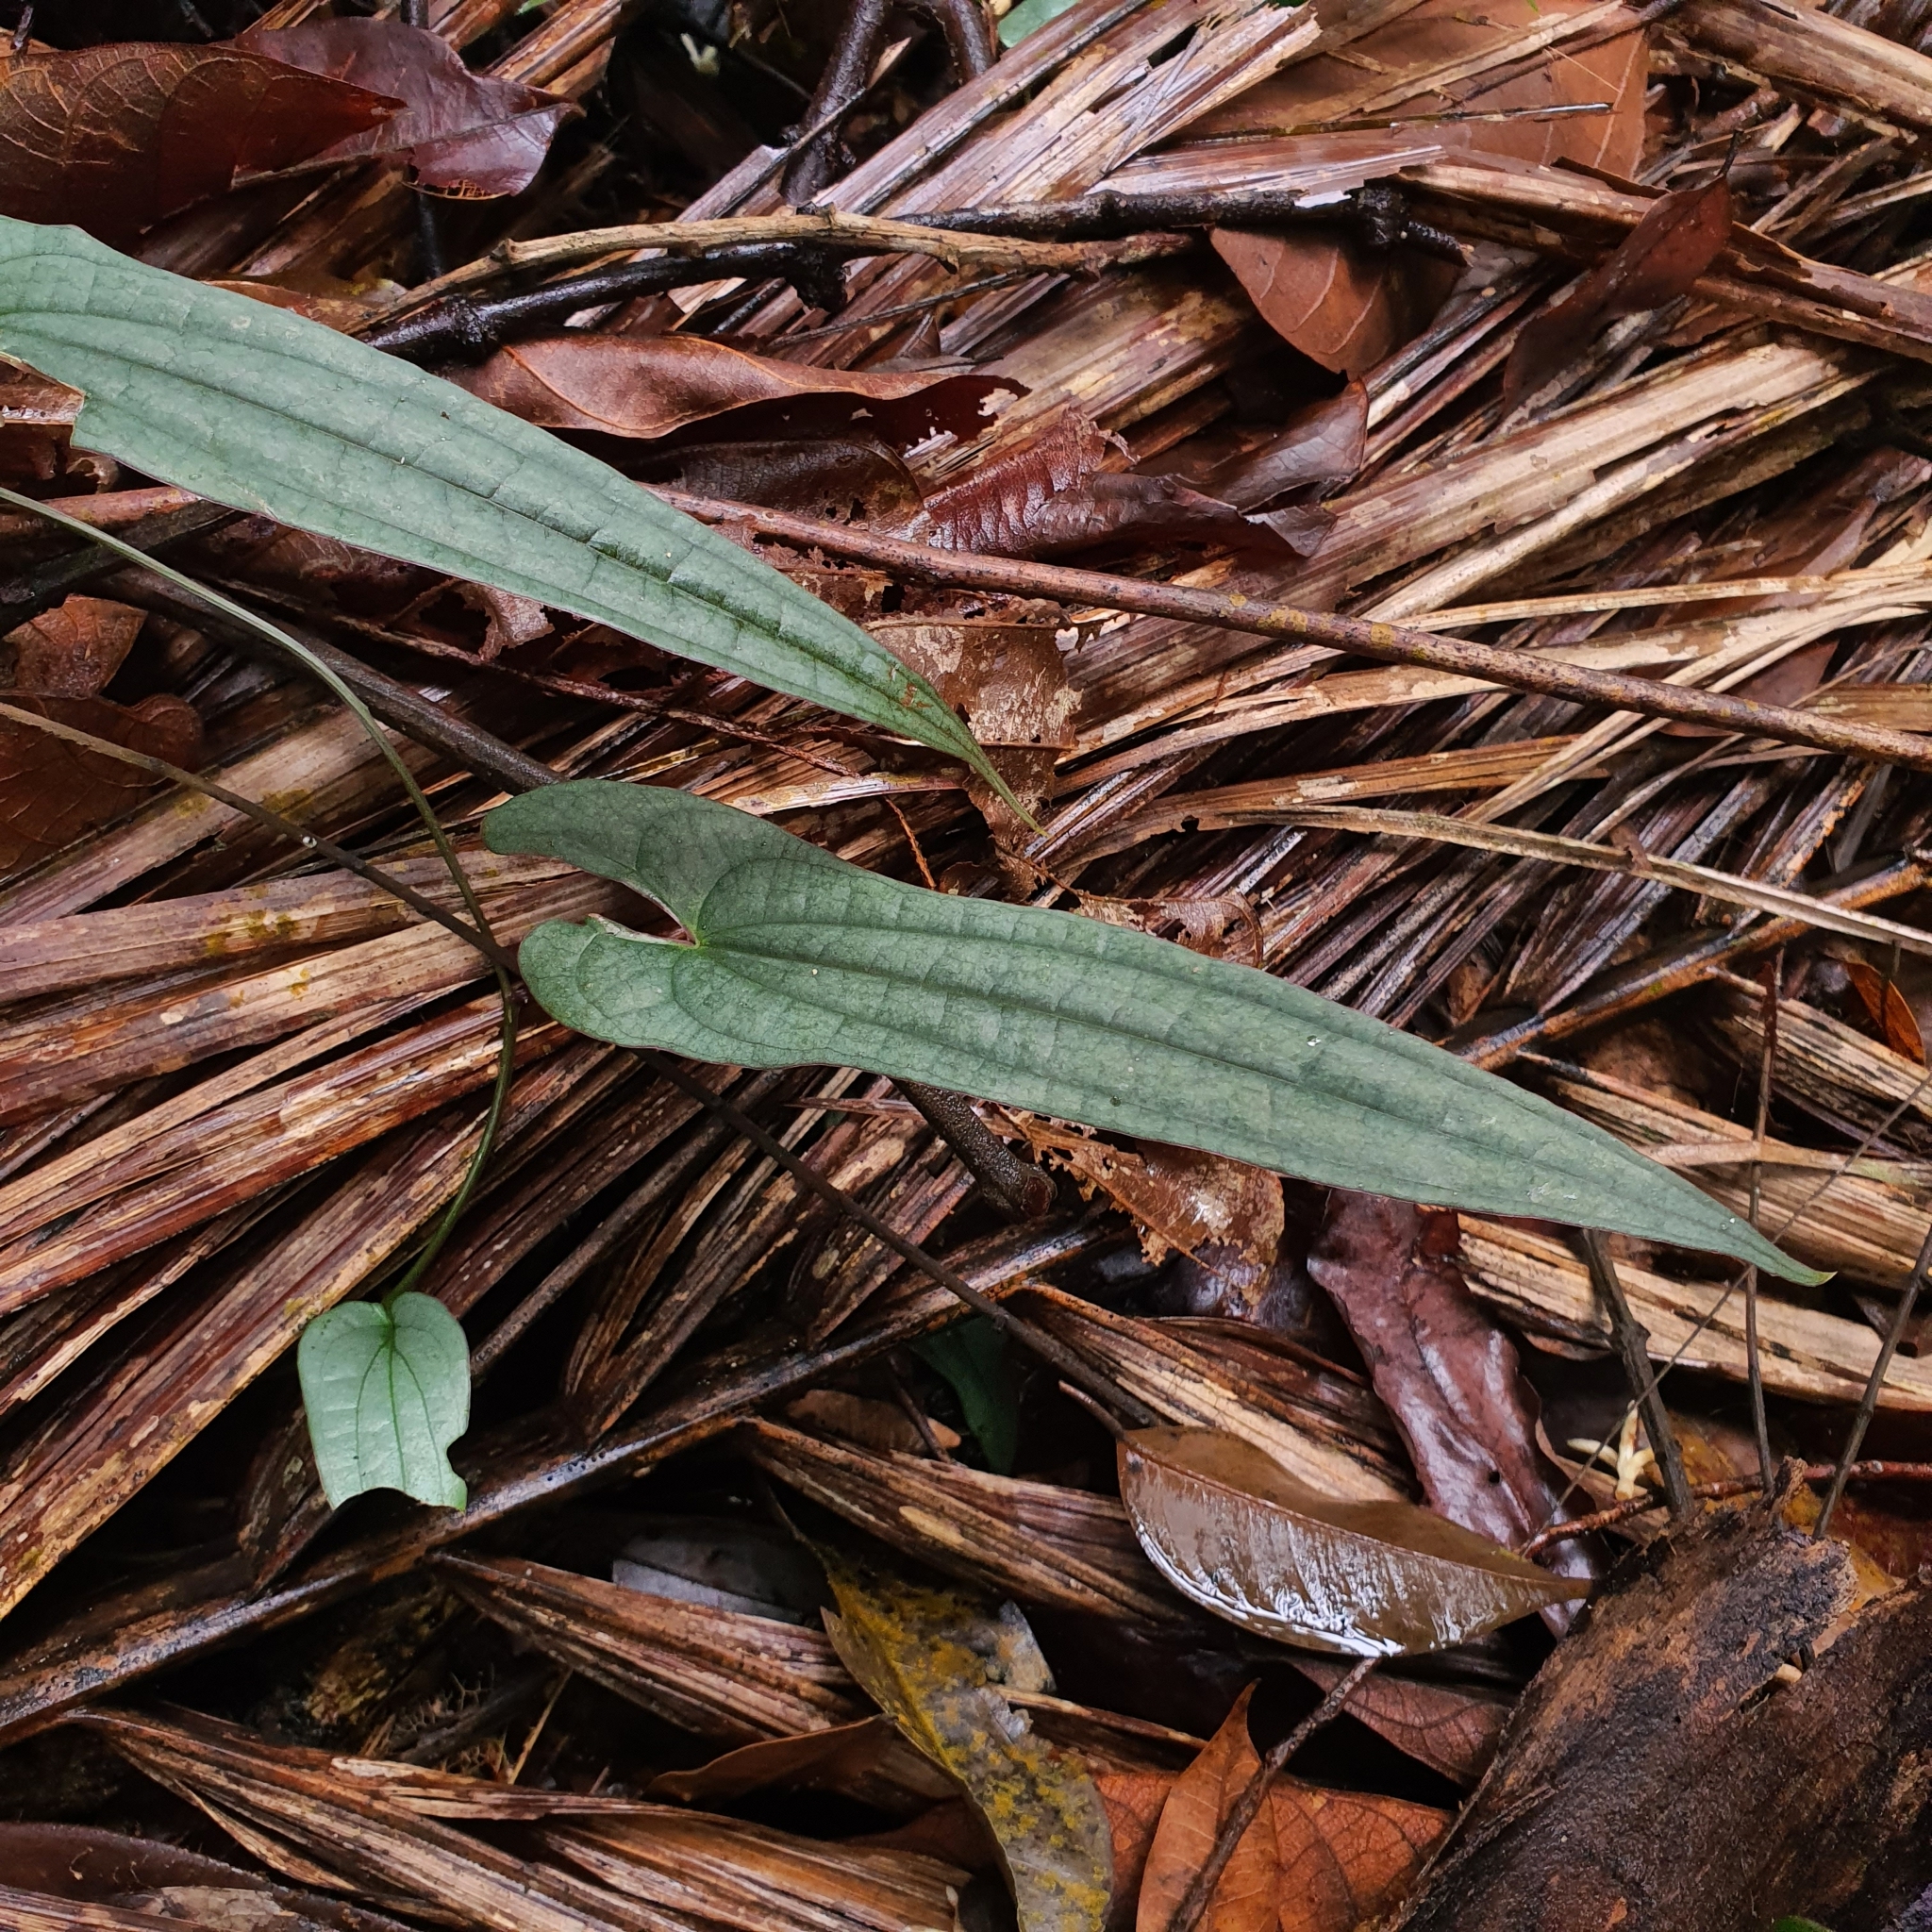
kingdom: Plantae
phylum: Tracheophyta
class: Liliopsida
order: Dioscoreales
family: Dioscoreaceae
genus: Dioscorea
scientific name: Dioscorea kingii
